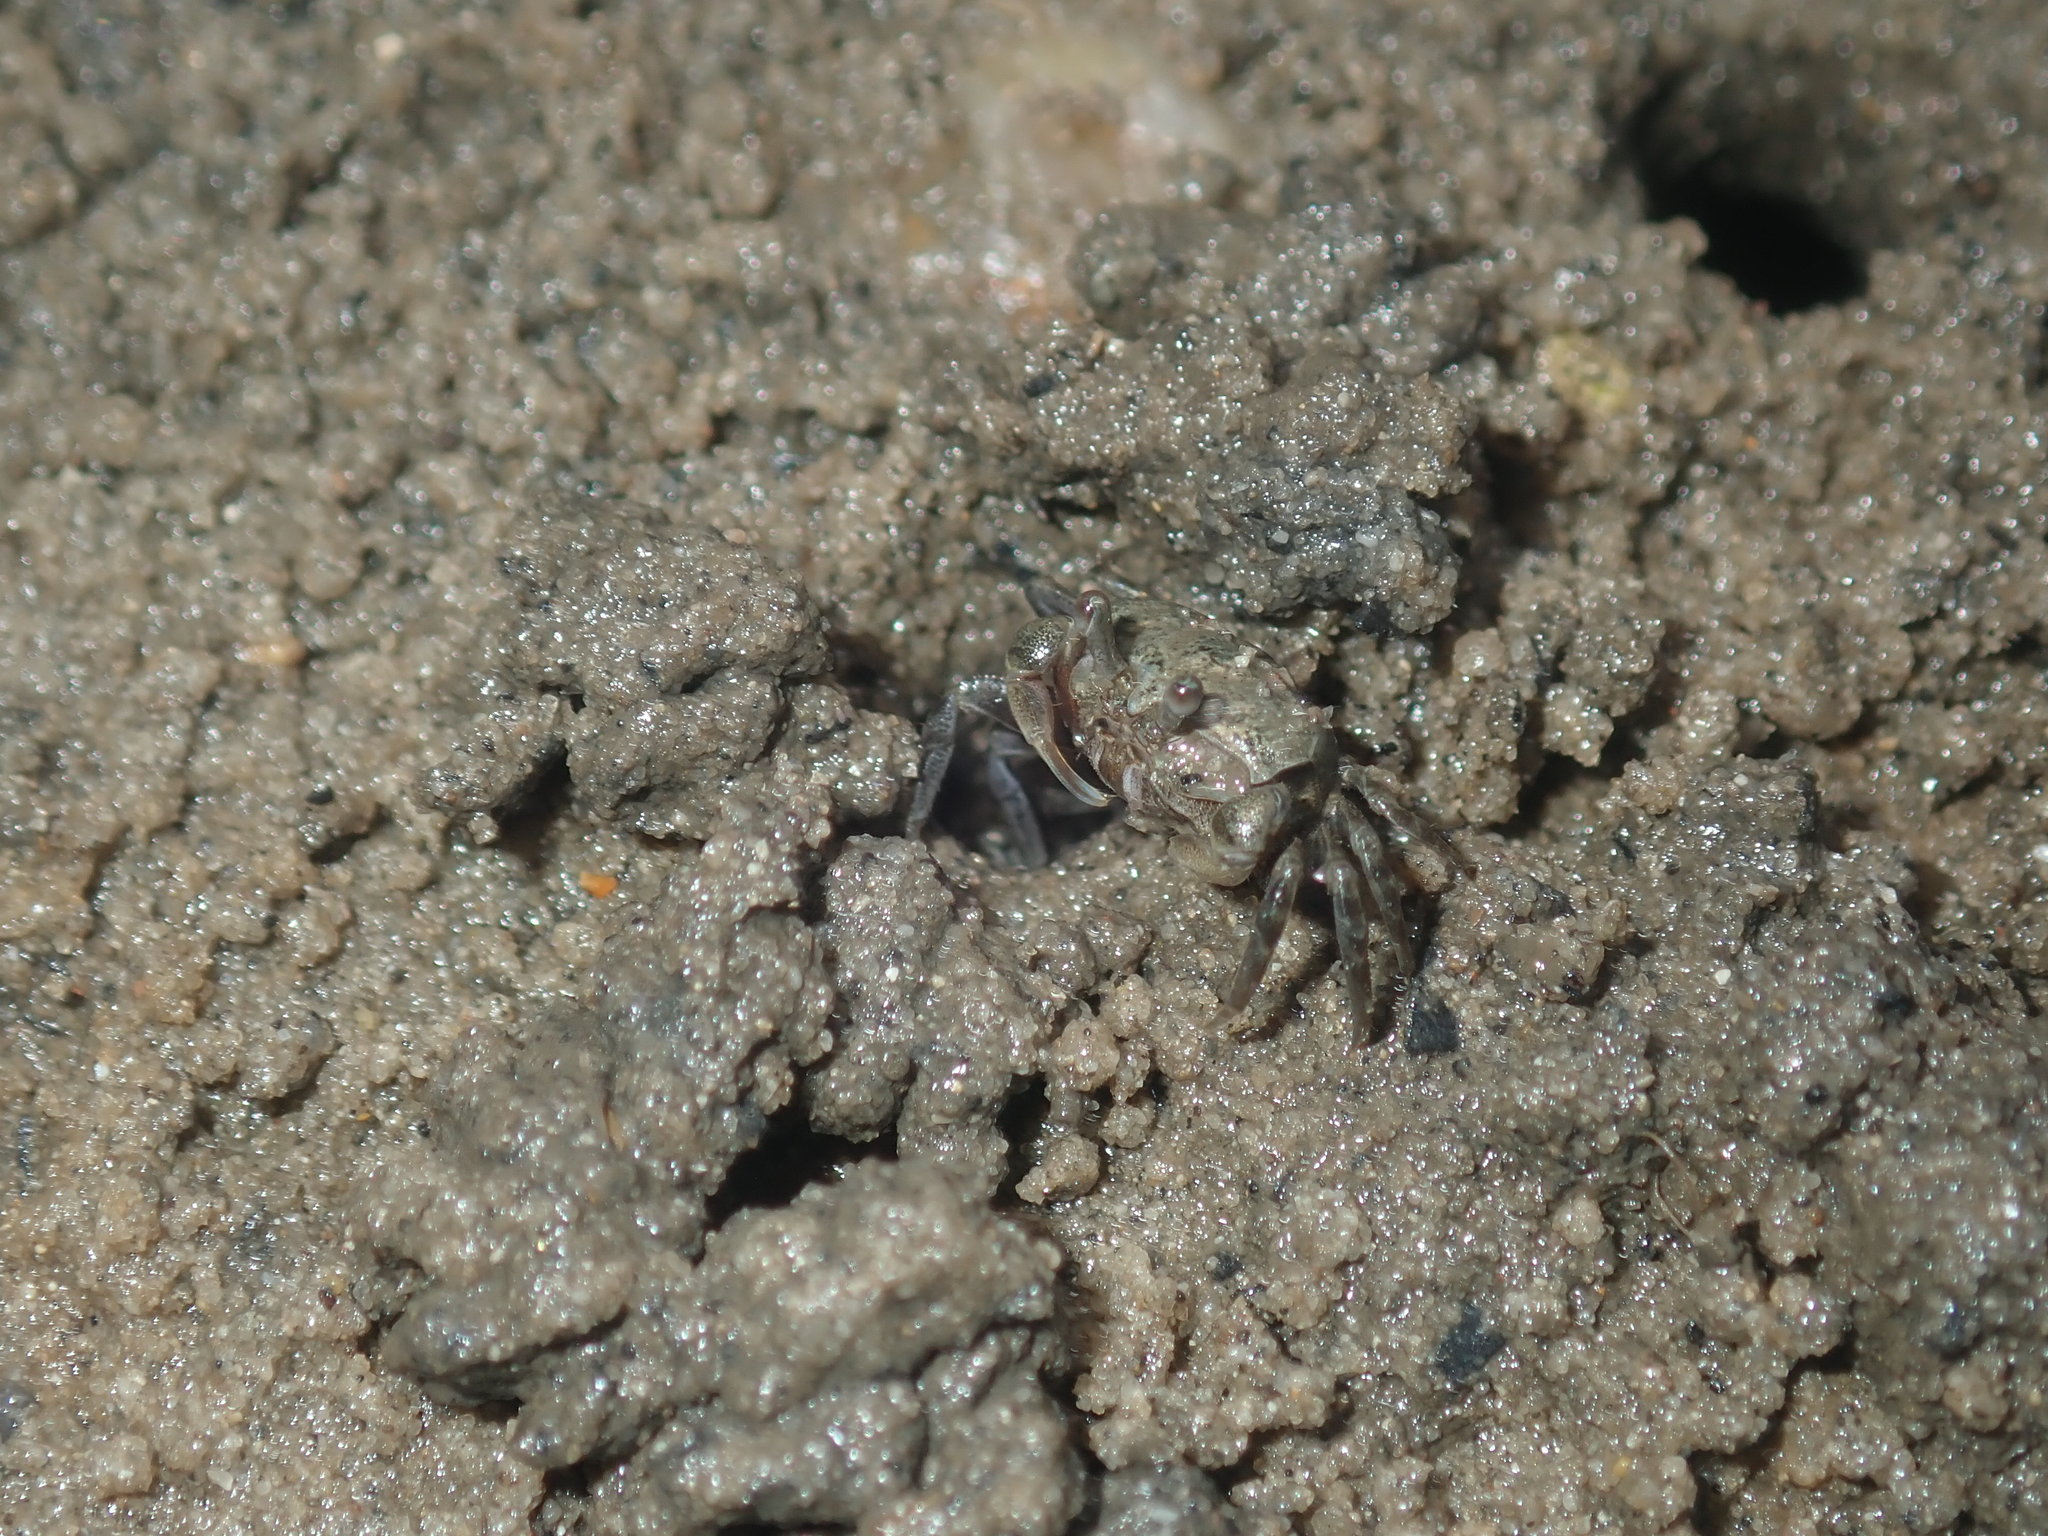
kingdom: Animalia
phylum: Arthropoda
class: Malacostraca
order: Decapoda
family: Heloeciidae
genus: Heloecius
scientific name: Heloecius cordiformis
